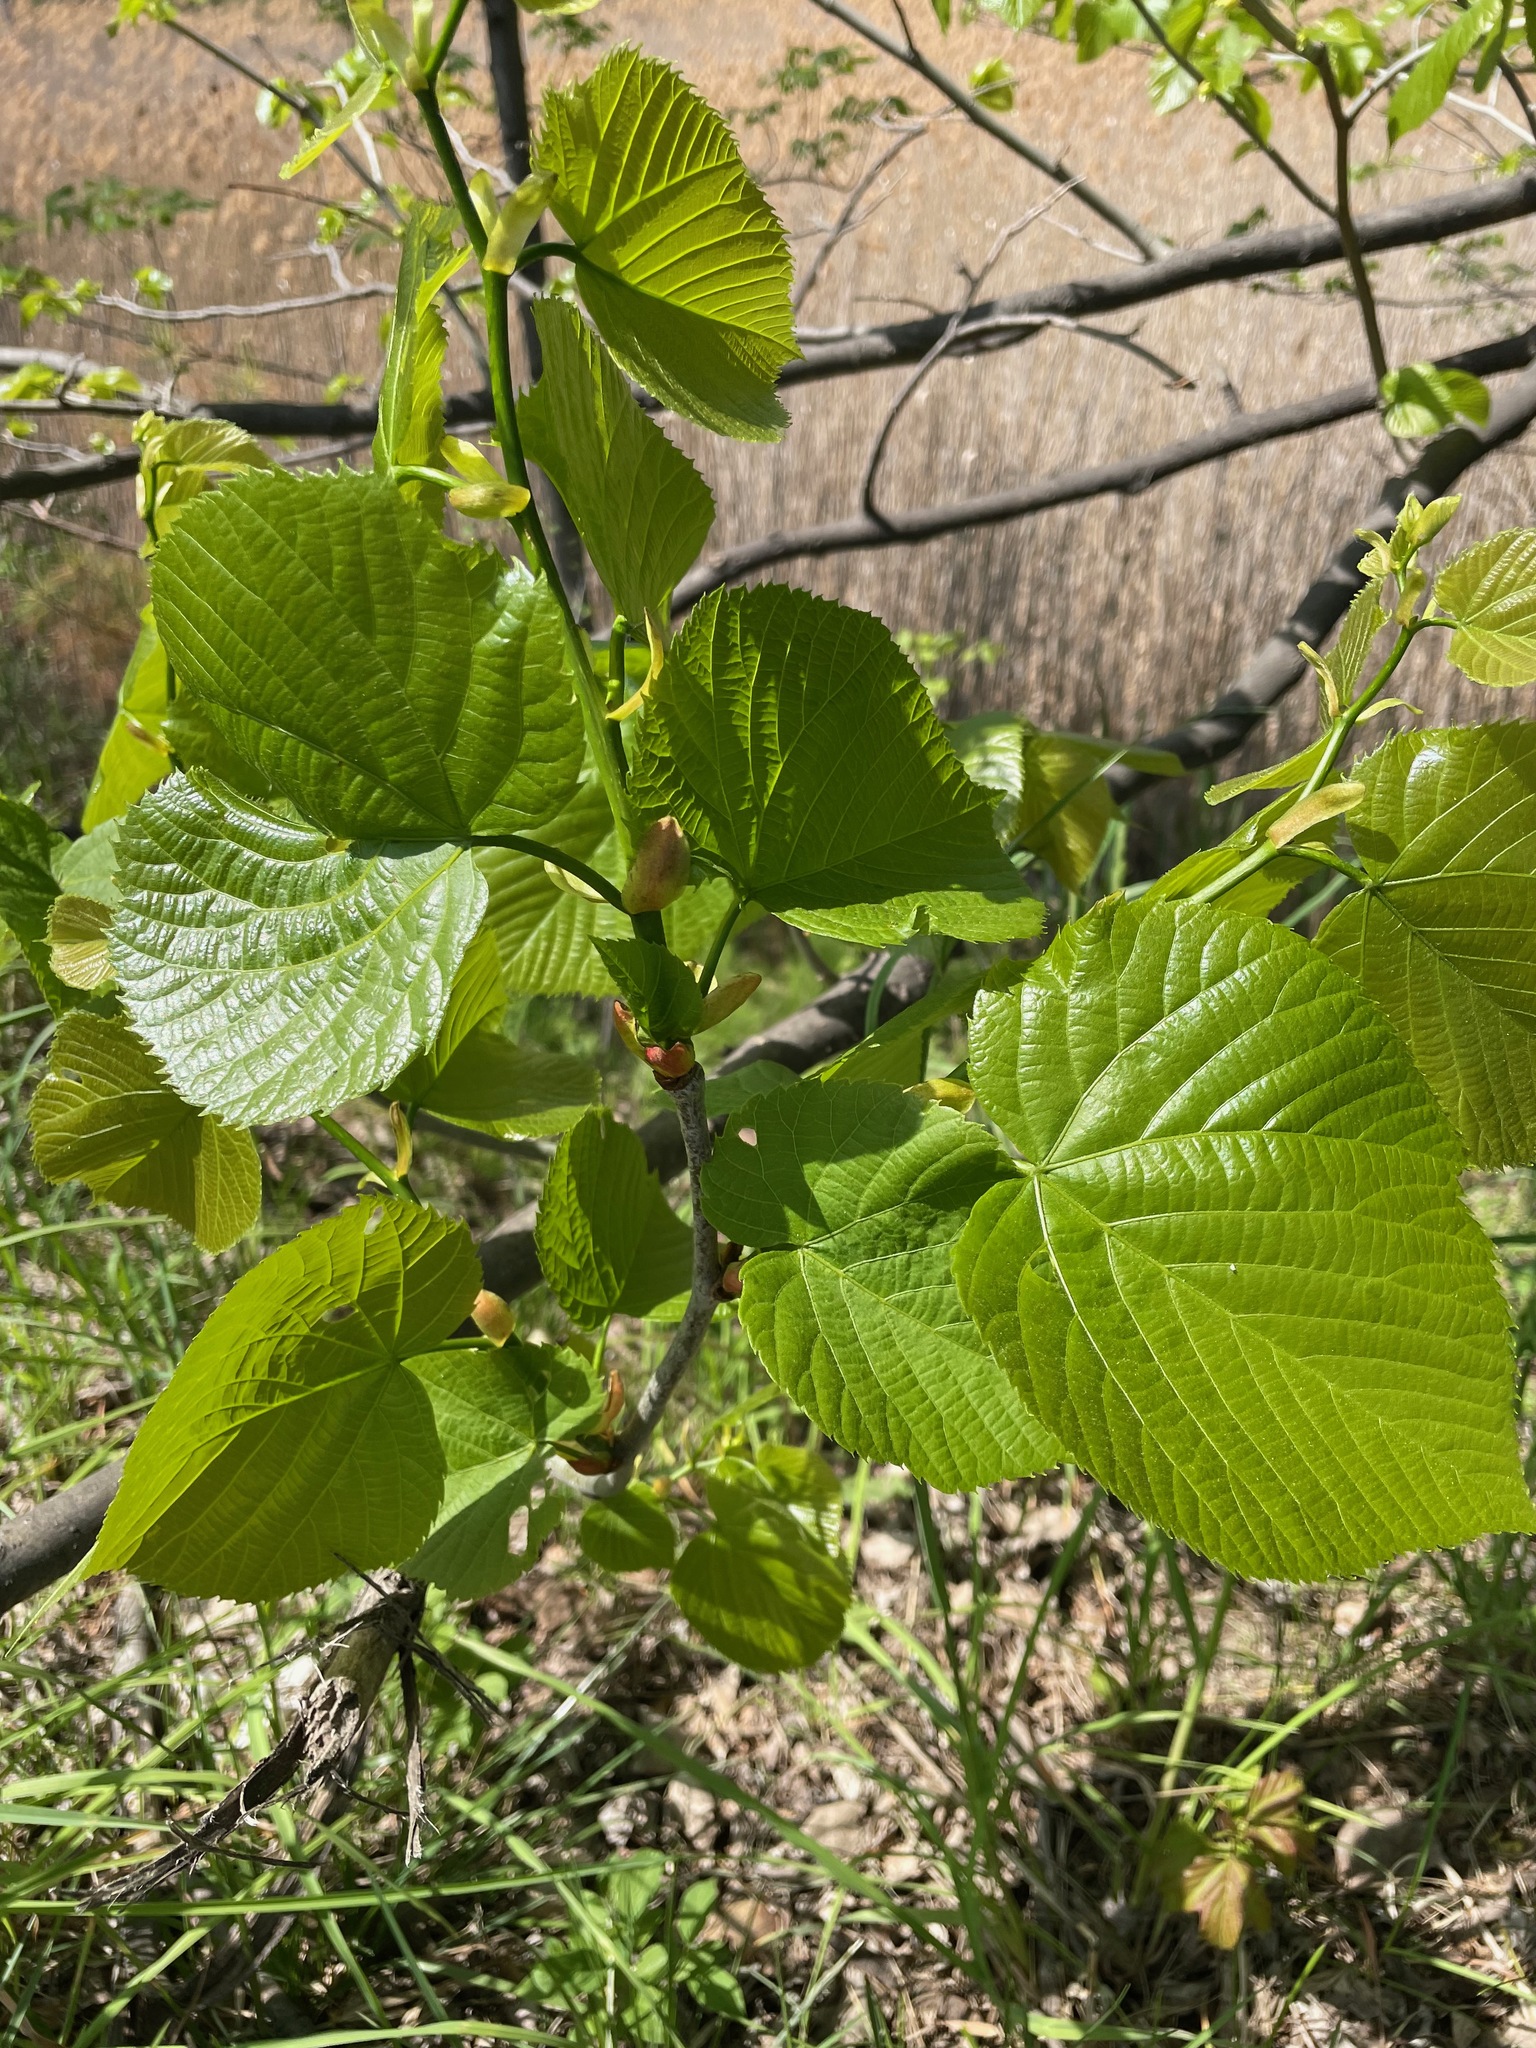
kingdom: Plantae
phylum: Tracheophyta
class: Magnoliopsida
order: Malvales
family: Malvaceae
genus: Tilia
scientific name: Tilia americana
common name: Basswood
